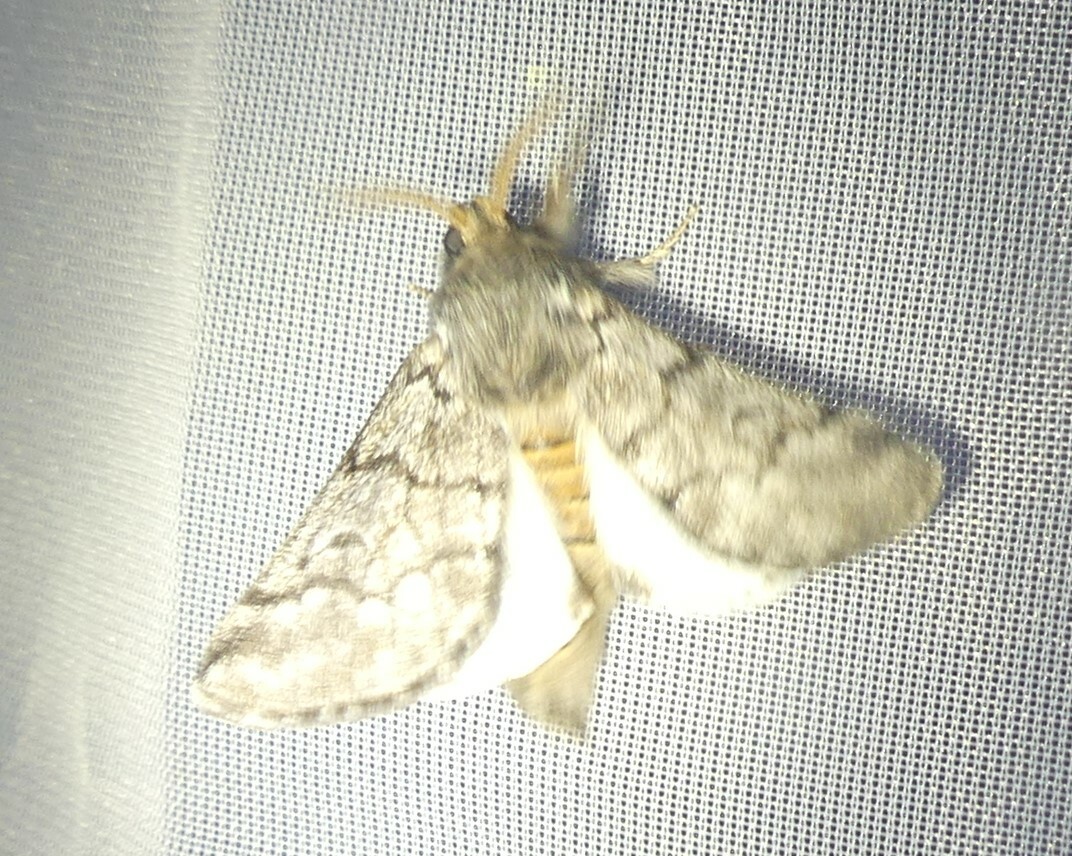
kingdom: Animalia
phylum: Arthropoda
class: Insecta
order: Lepidoptera
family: Notodontidae
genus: Thaumetopoea
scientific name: Thaumetopoea pityocampa
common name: Pine processionary
